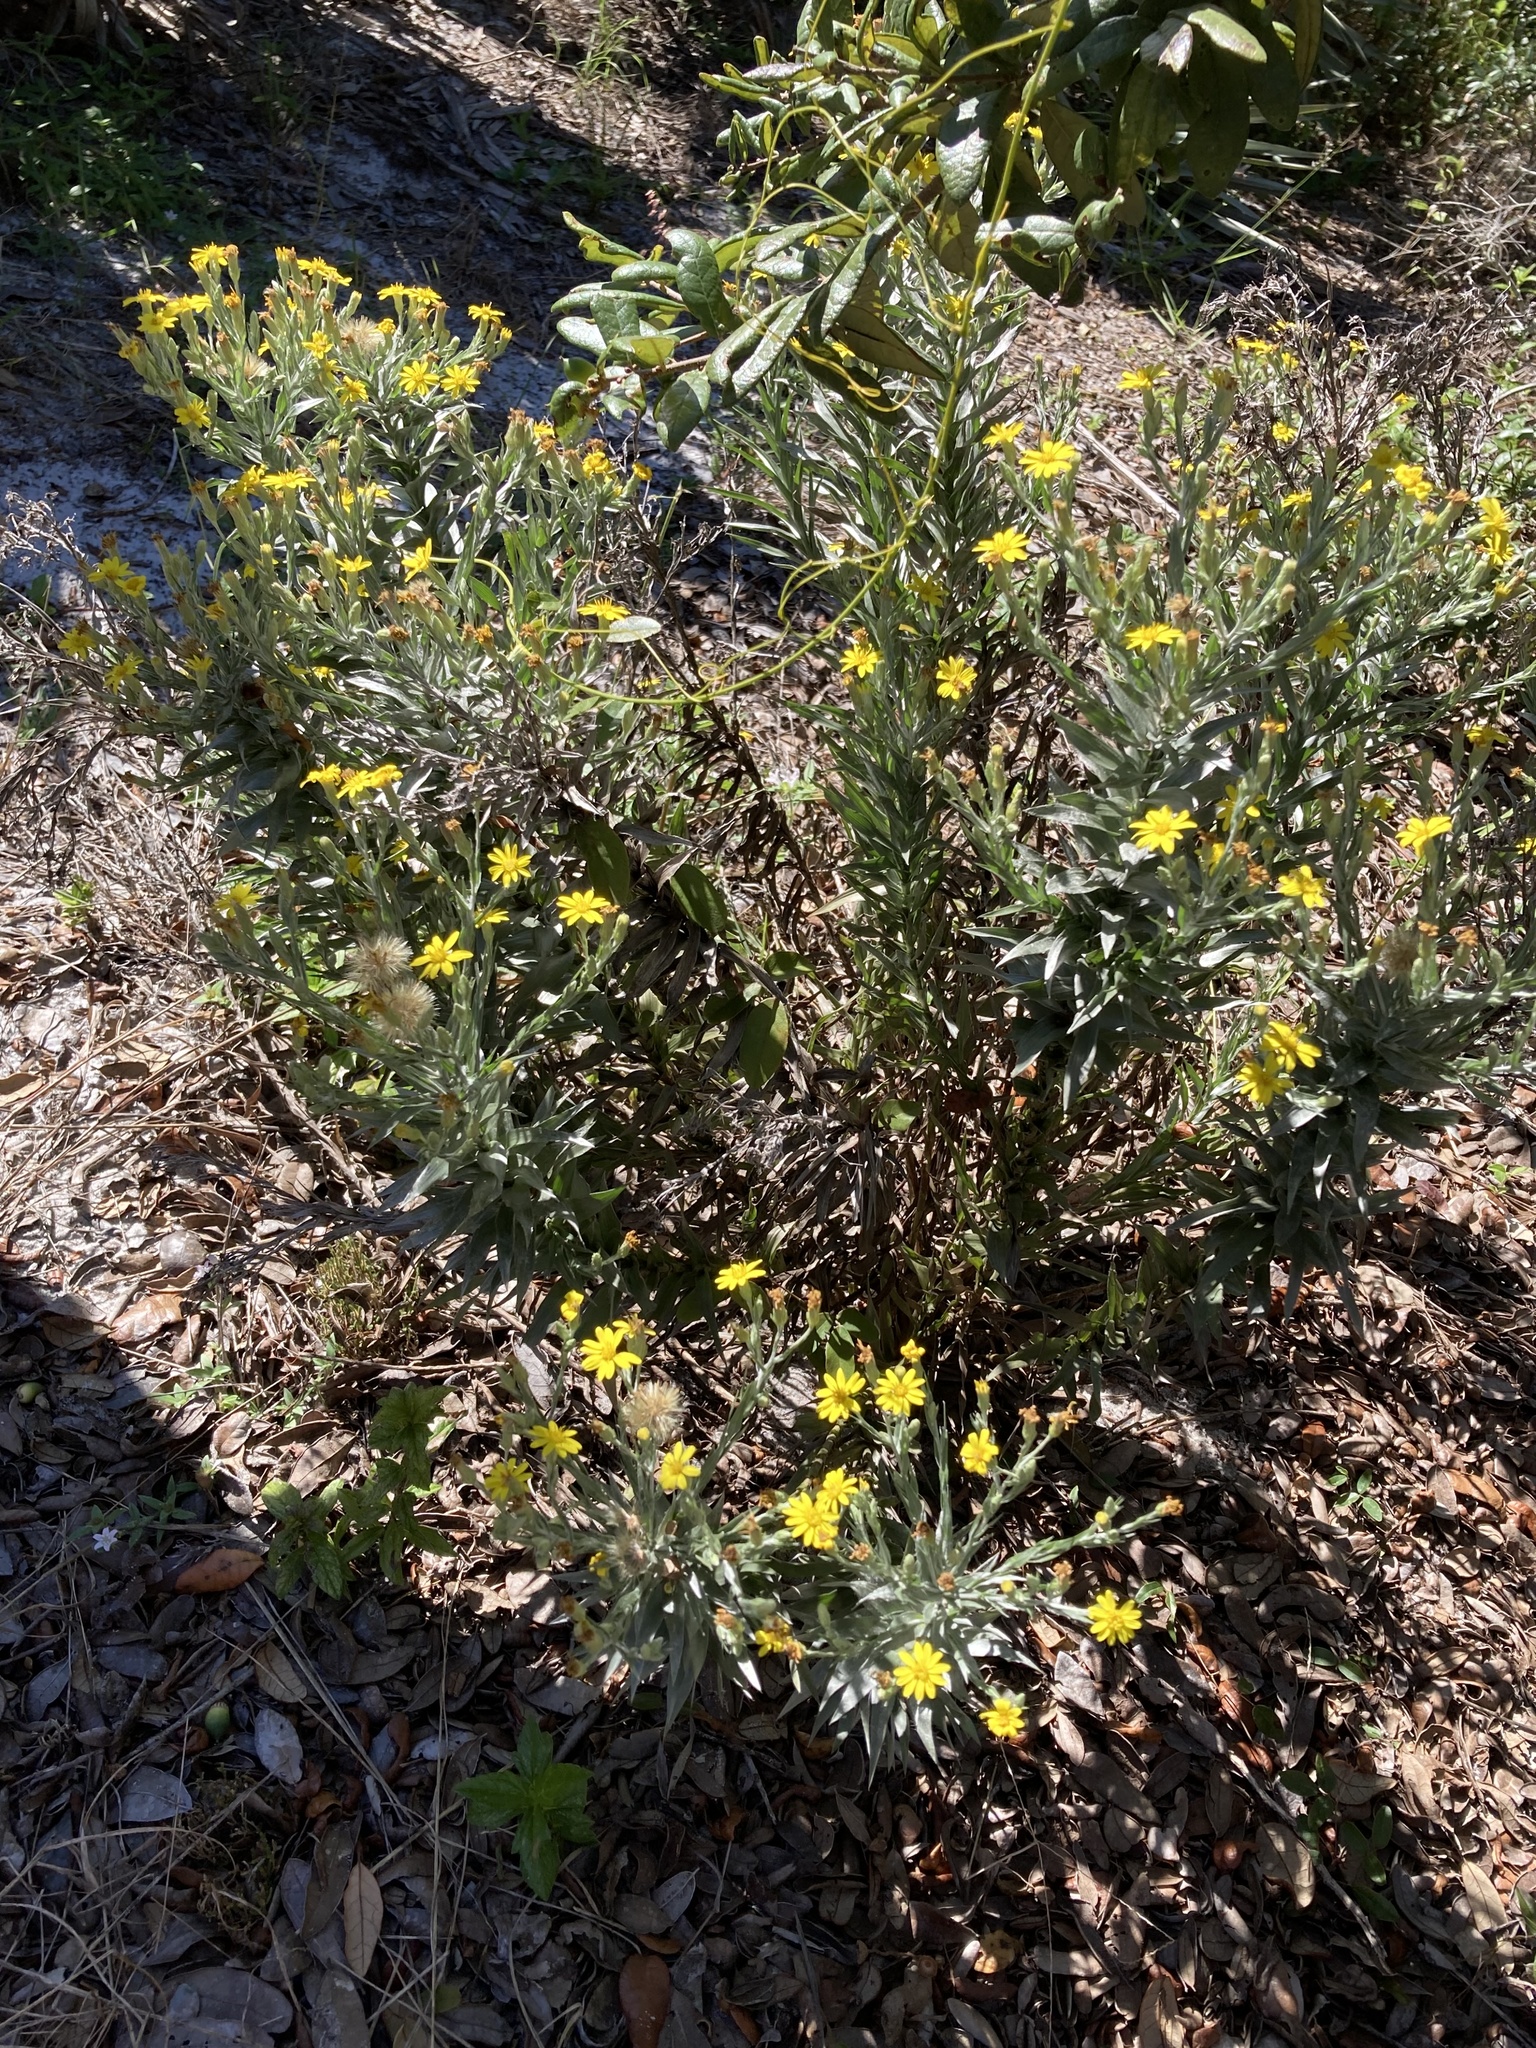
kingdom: Plantae
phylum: Tracheophyta
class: Magnoliopsida
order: Asterales
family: Asteraceae
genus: Pityopsis
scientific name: Pityopsis graminifolia
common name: Grass-leaf golden-aster
